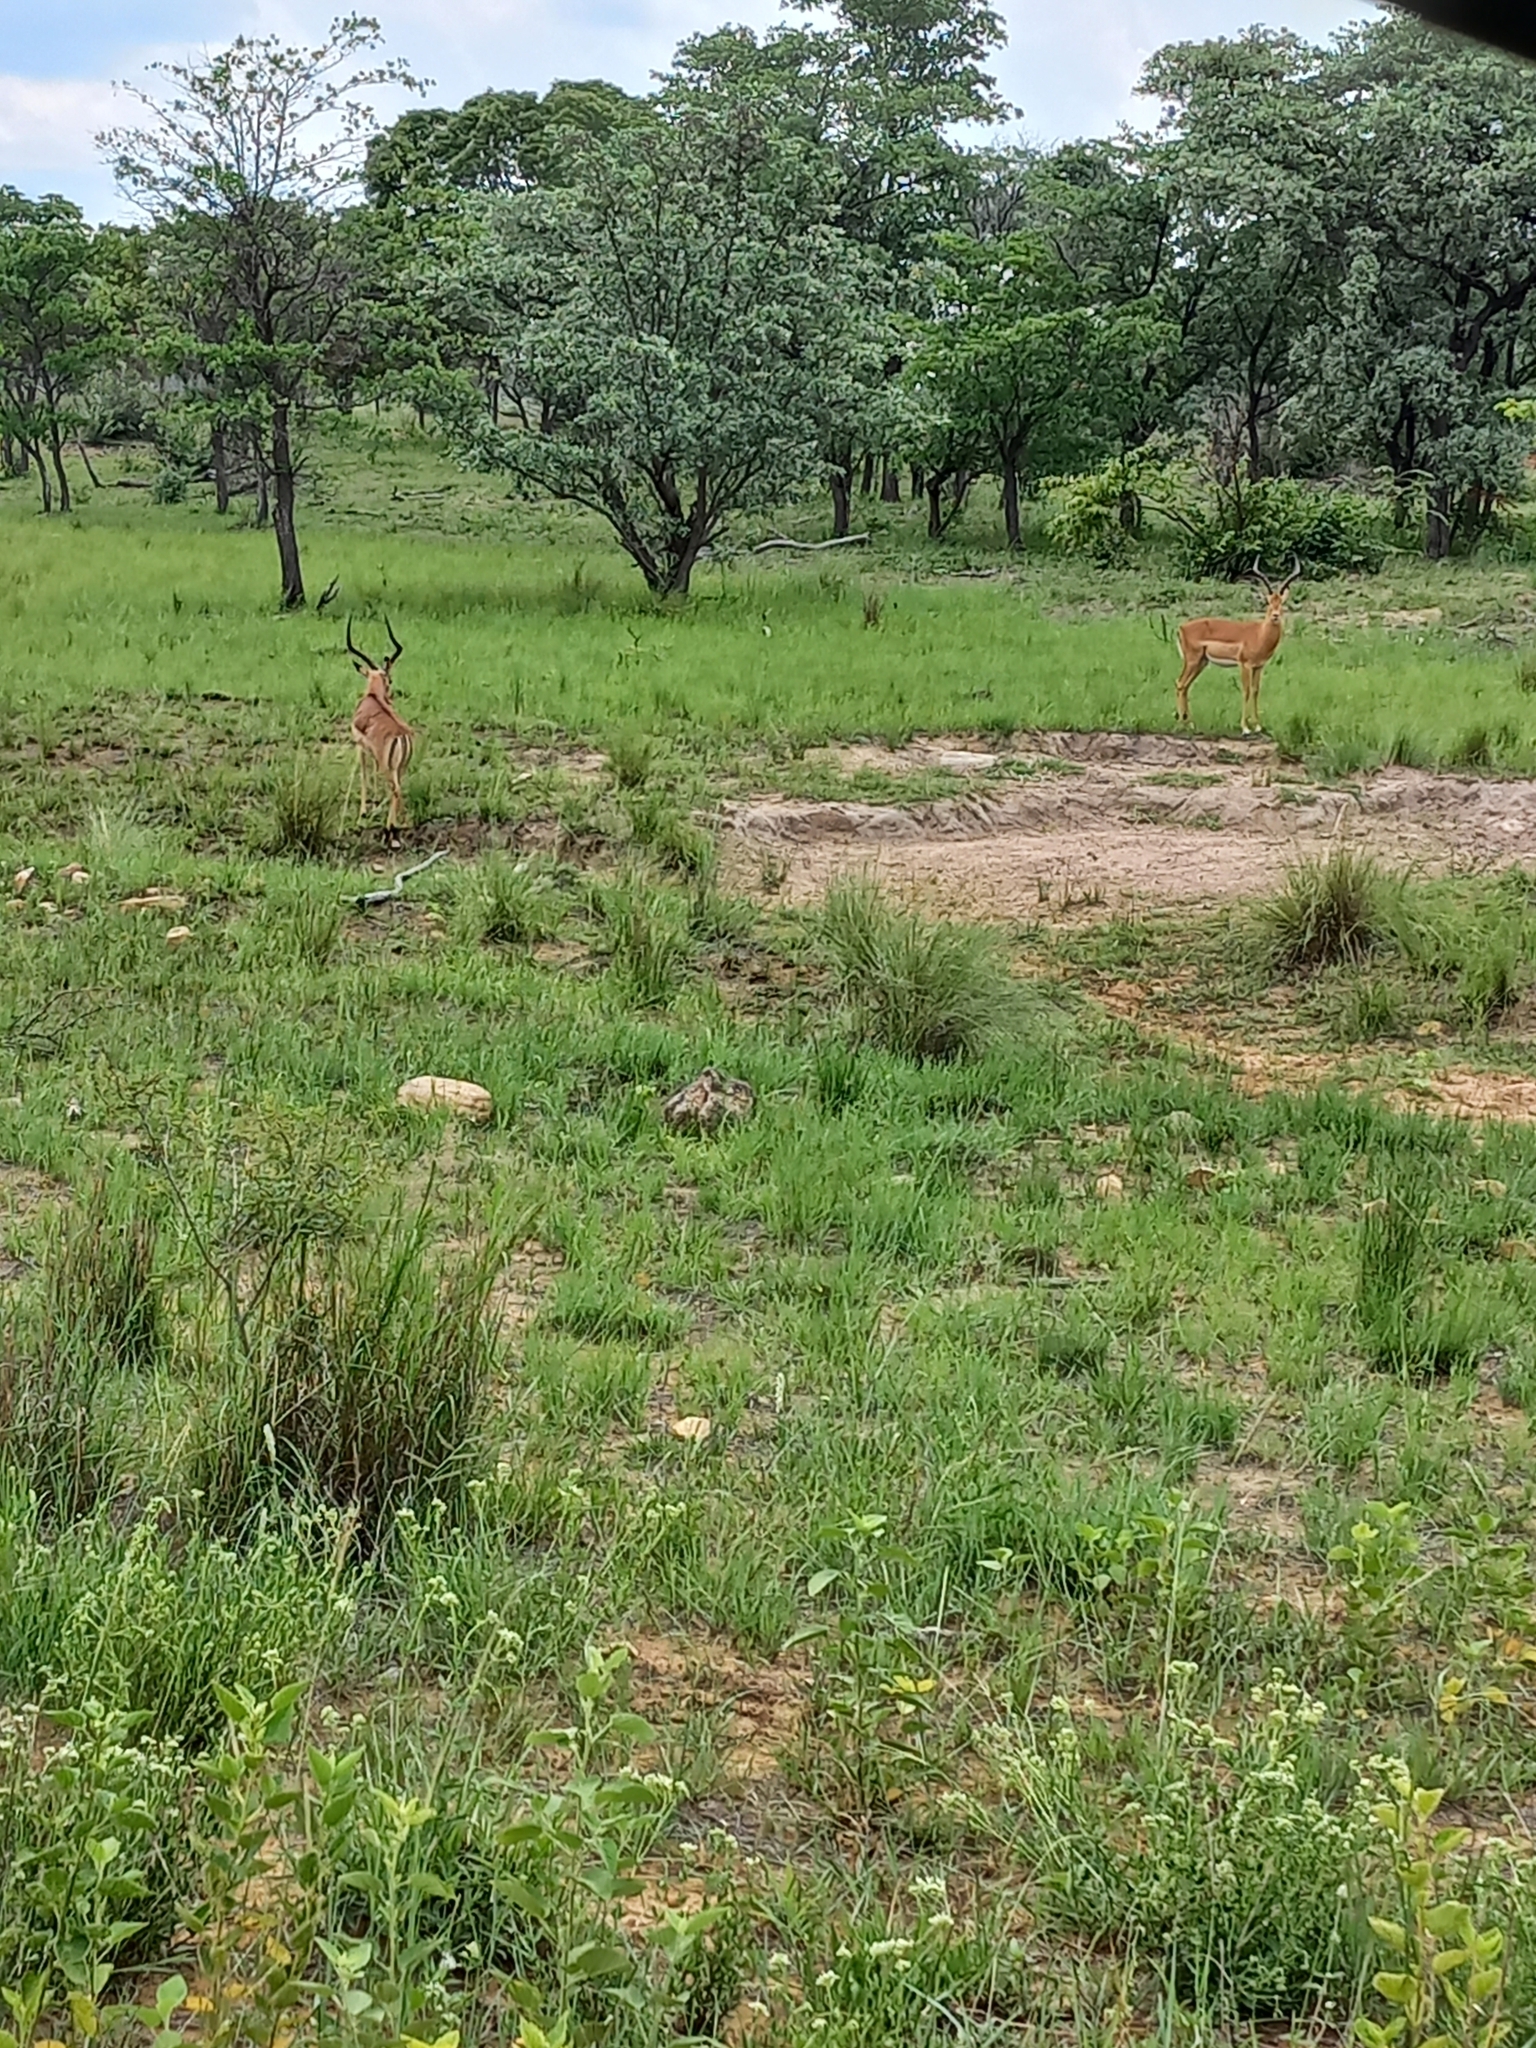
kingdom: Animalia
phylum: Chordata
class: Mammalia
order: Artiodactyla
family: Bovidae
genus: Aepyceros
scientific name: Aepyceros melampus
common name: Impala
